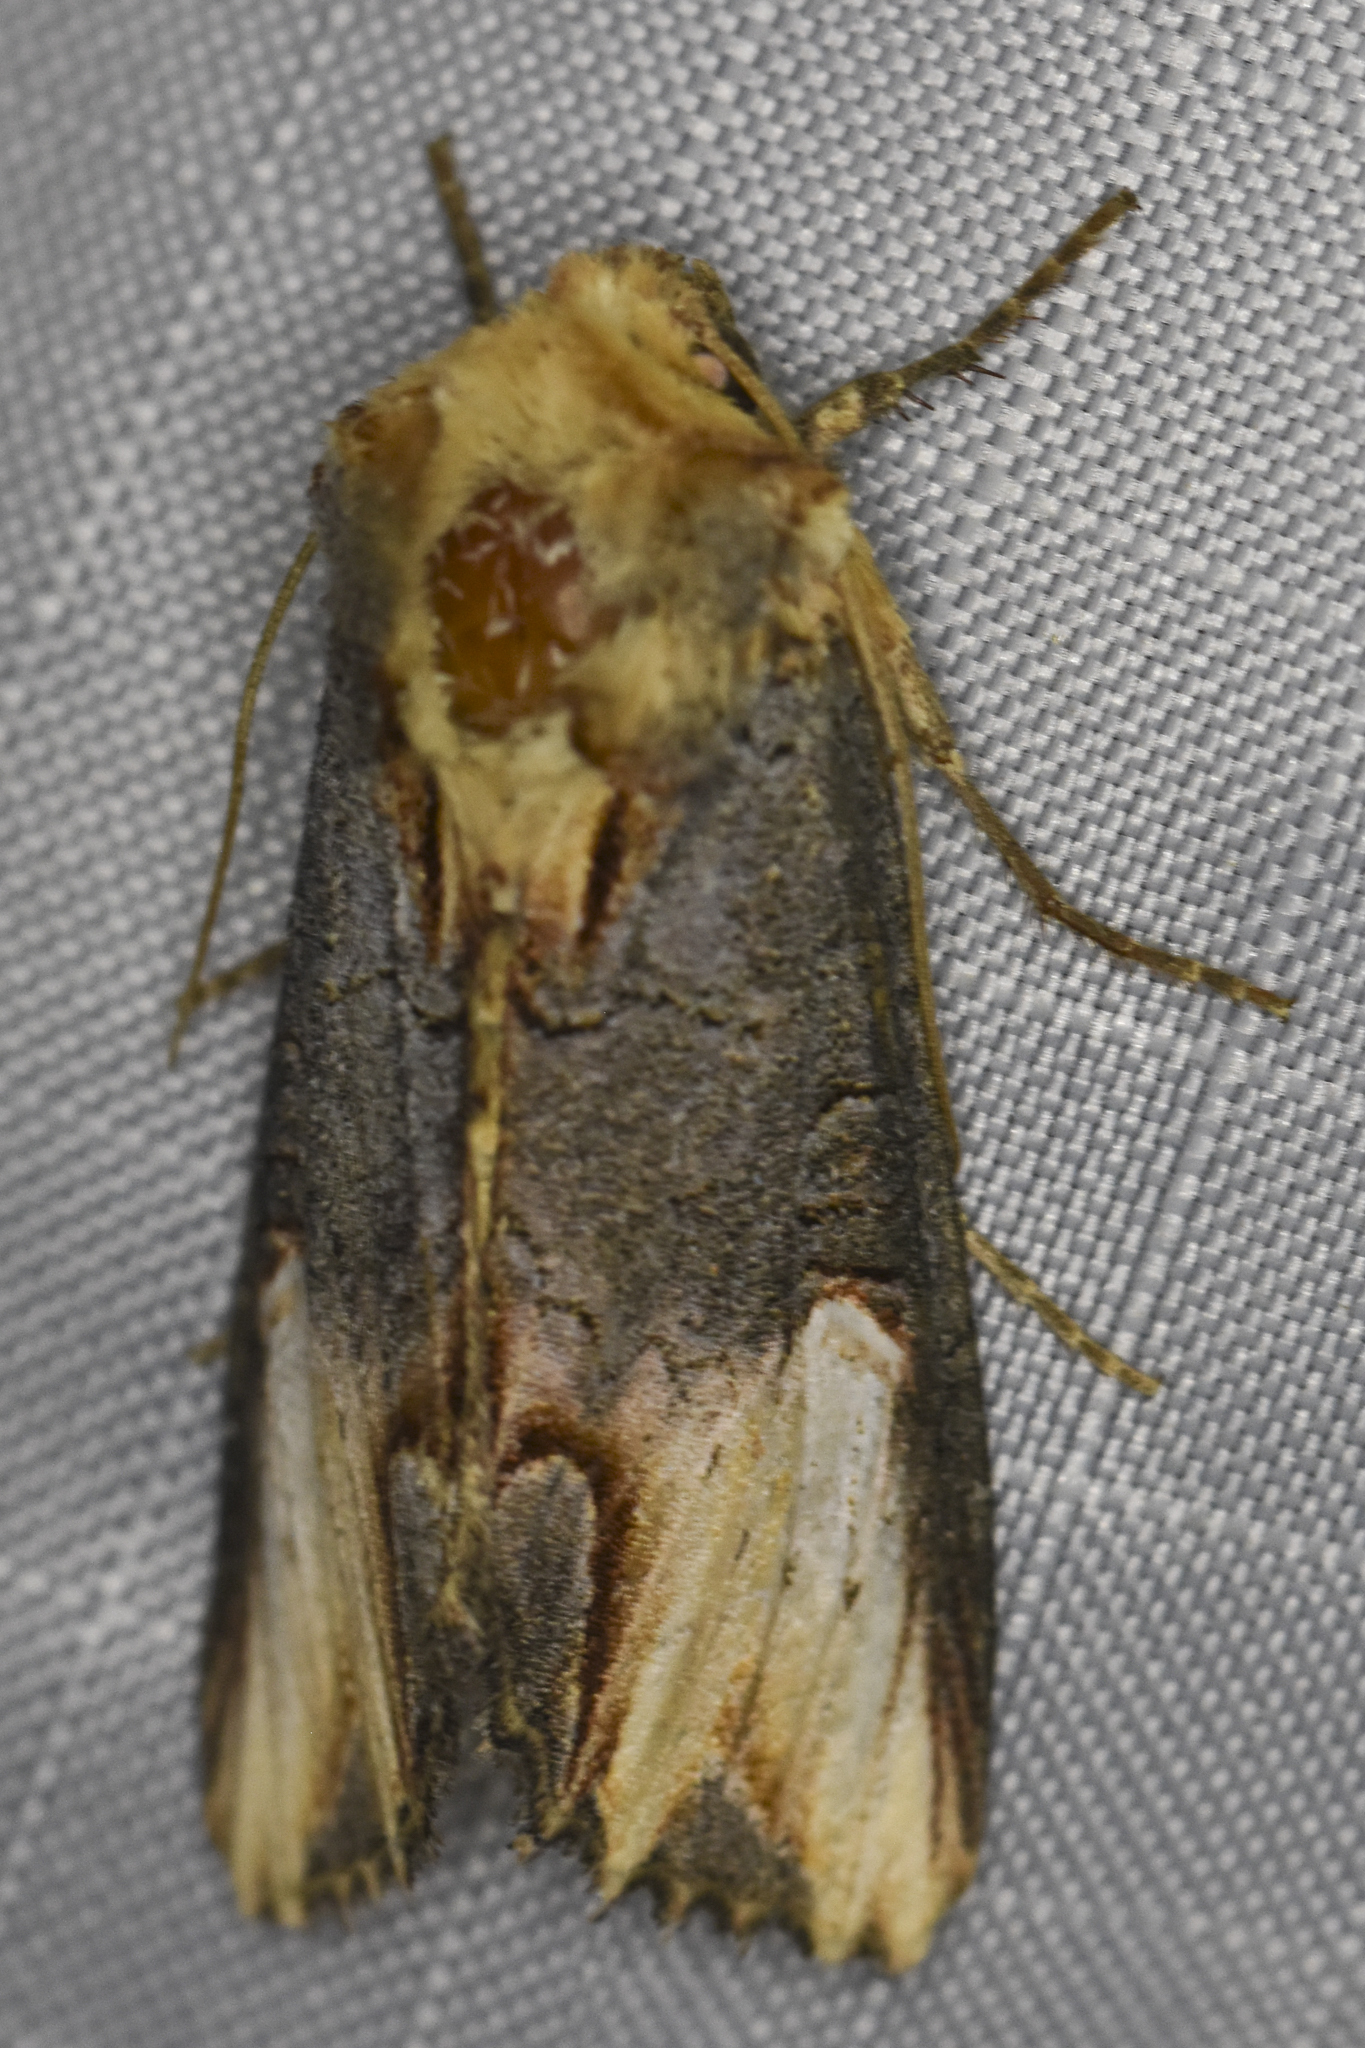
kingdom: Animalia
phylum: Arthropoda
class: Insecta
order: Lepidoptera
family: Noctuidae
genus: Admetovis
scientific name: Admetovis similaris
